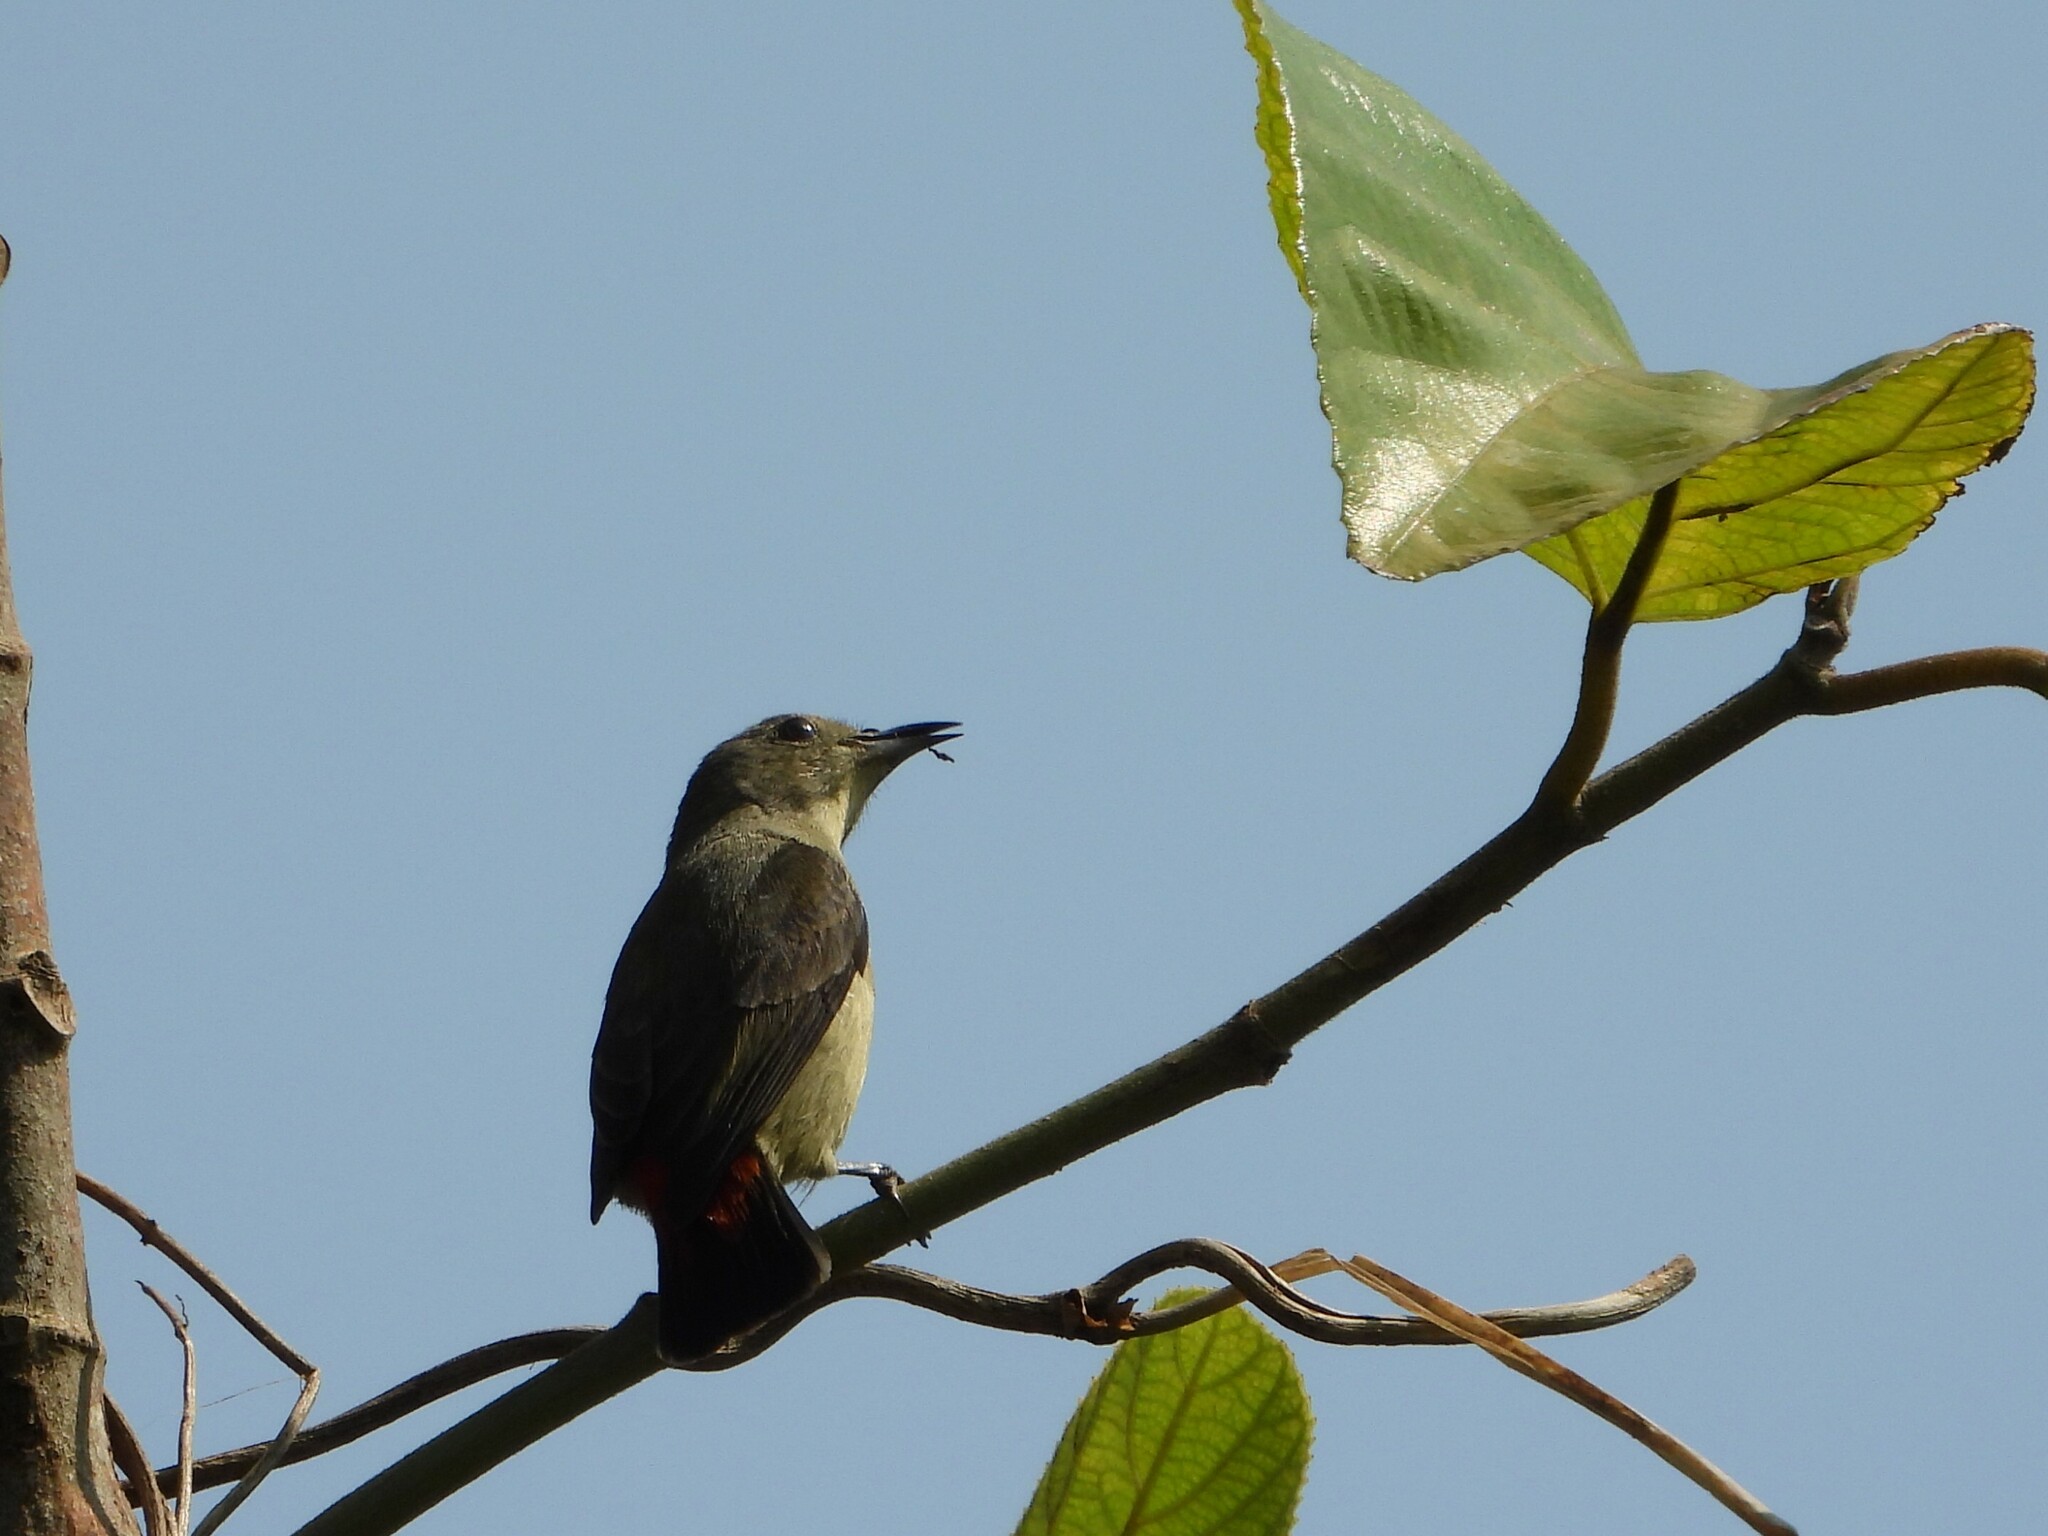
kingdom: Animalia
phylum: Chordata
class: Aves
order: Passeriformes
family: Dicaeidae
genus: Dicaeum
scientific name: Dicaeum cruentatum
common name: Scarlet-backed flowerpecker
